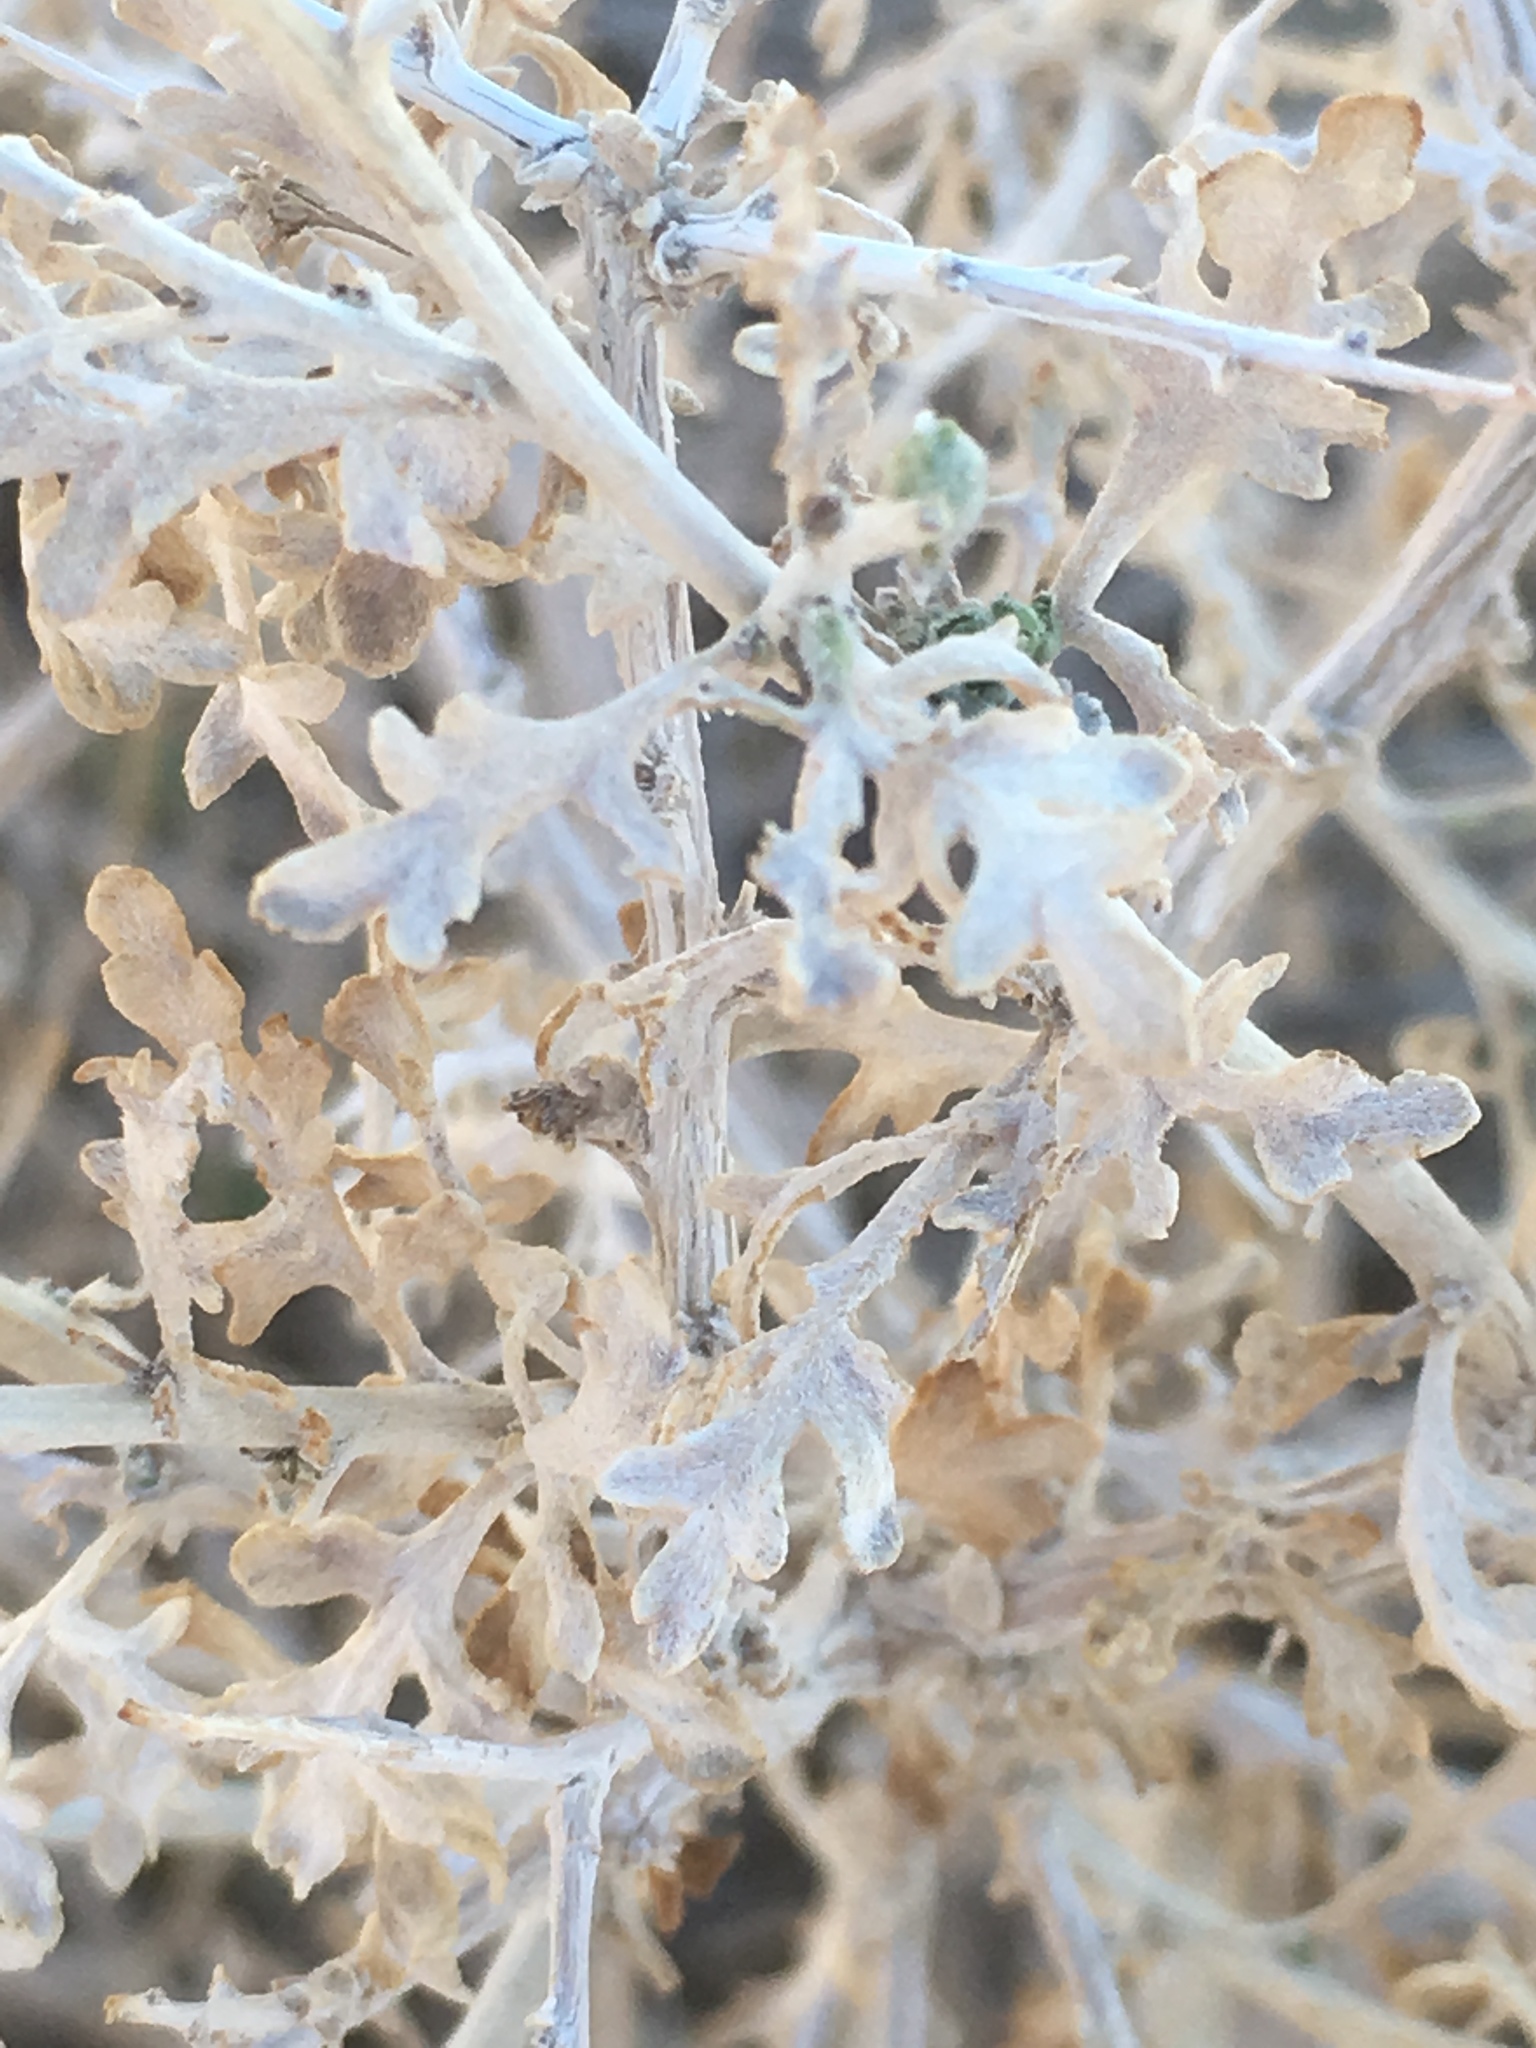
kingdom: Plantae
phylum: Tracheophyta
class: Magnoliopsida
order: Asterales
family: Asteraceae
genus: Ambrosia
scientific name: Ambrosia dumosa
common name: Bur-sage
